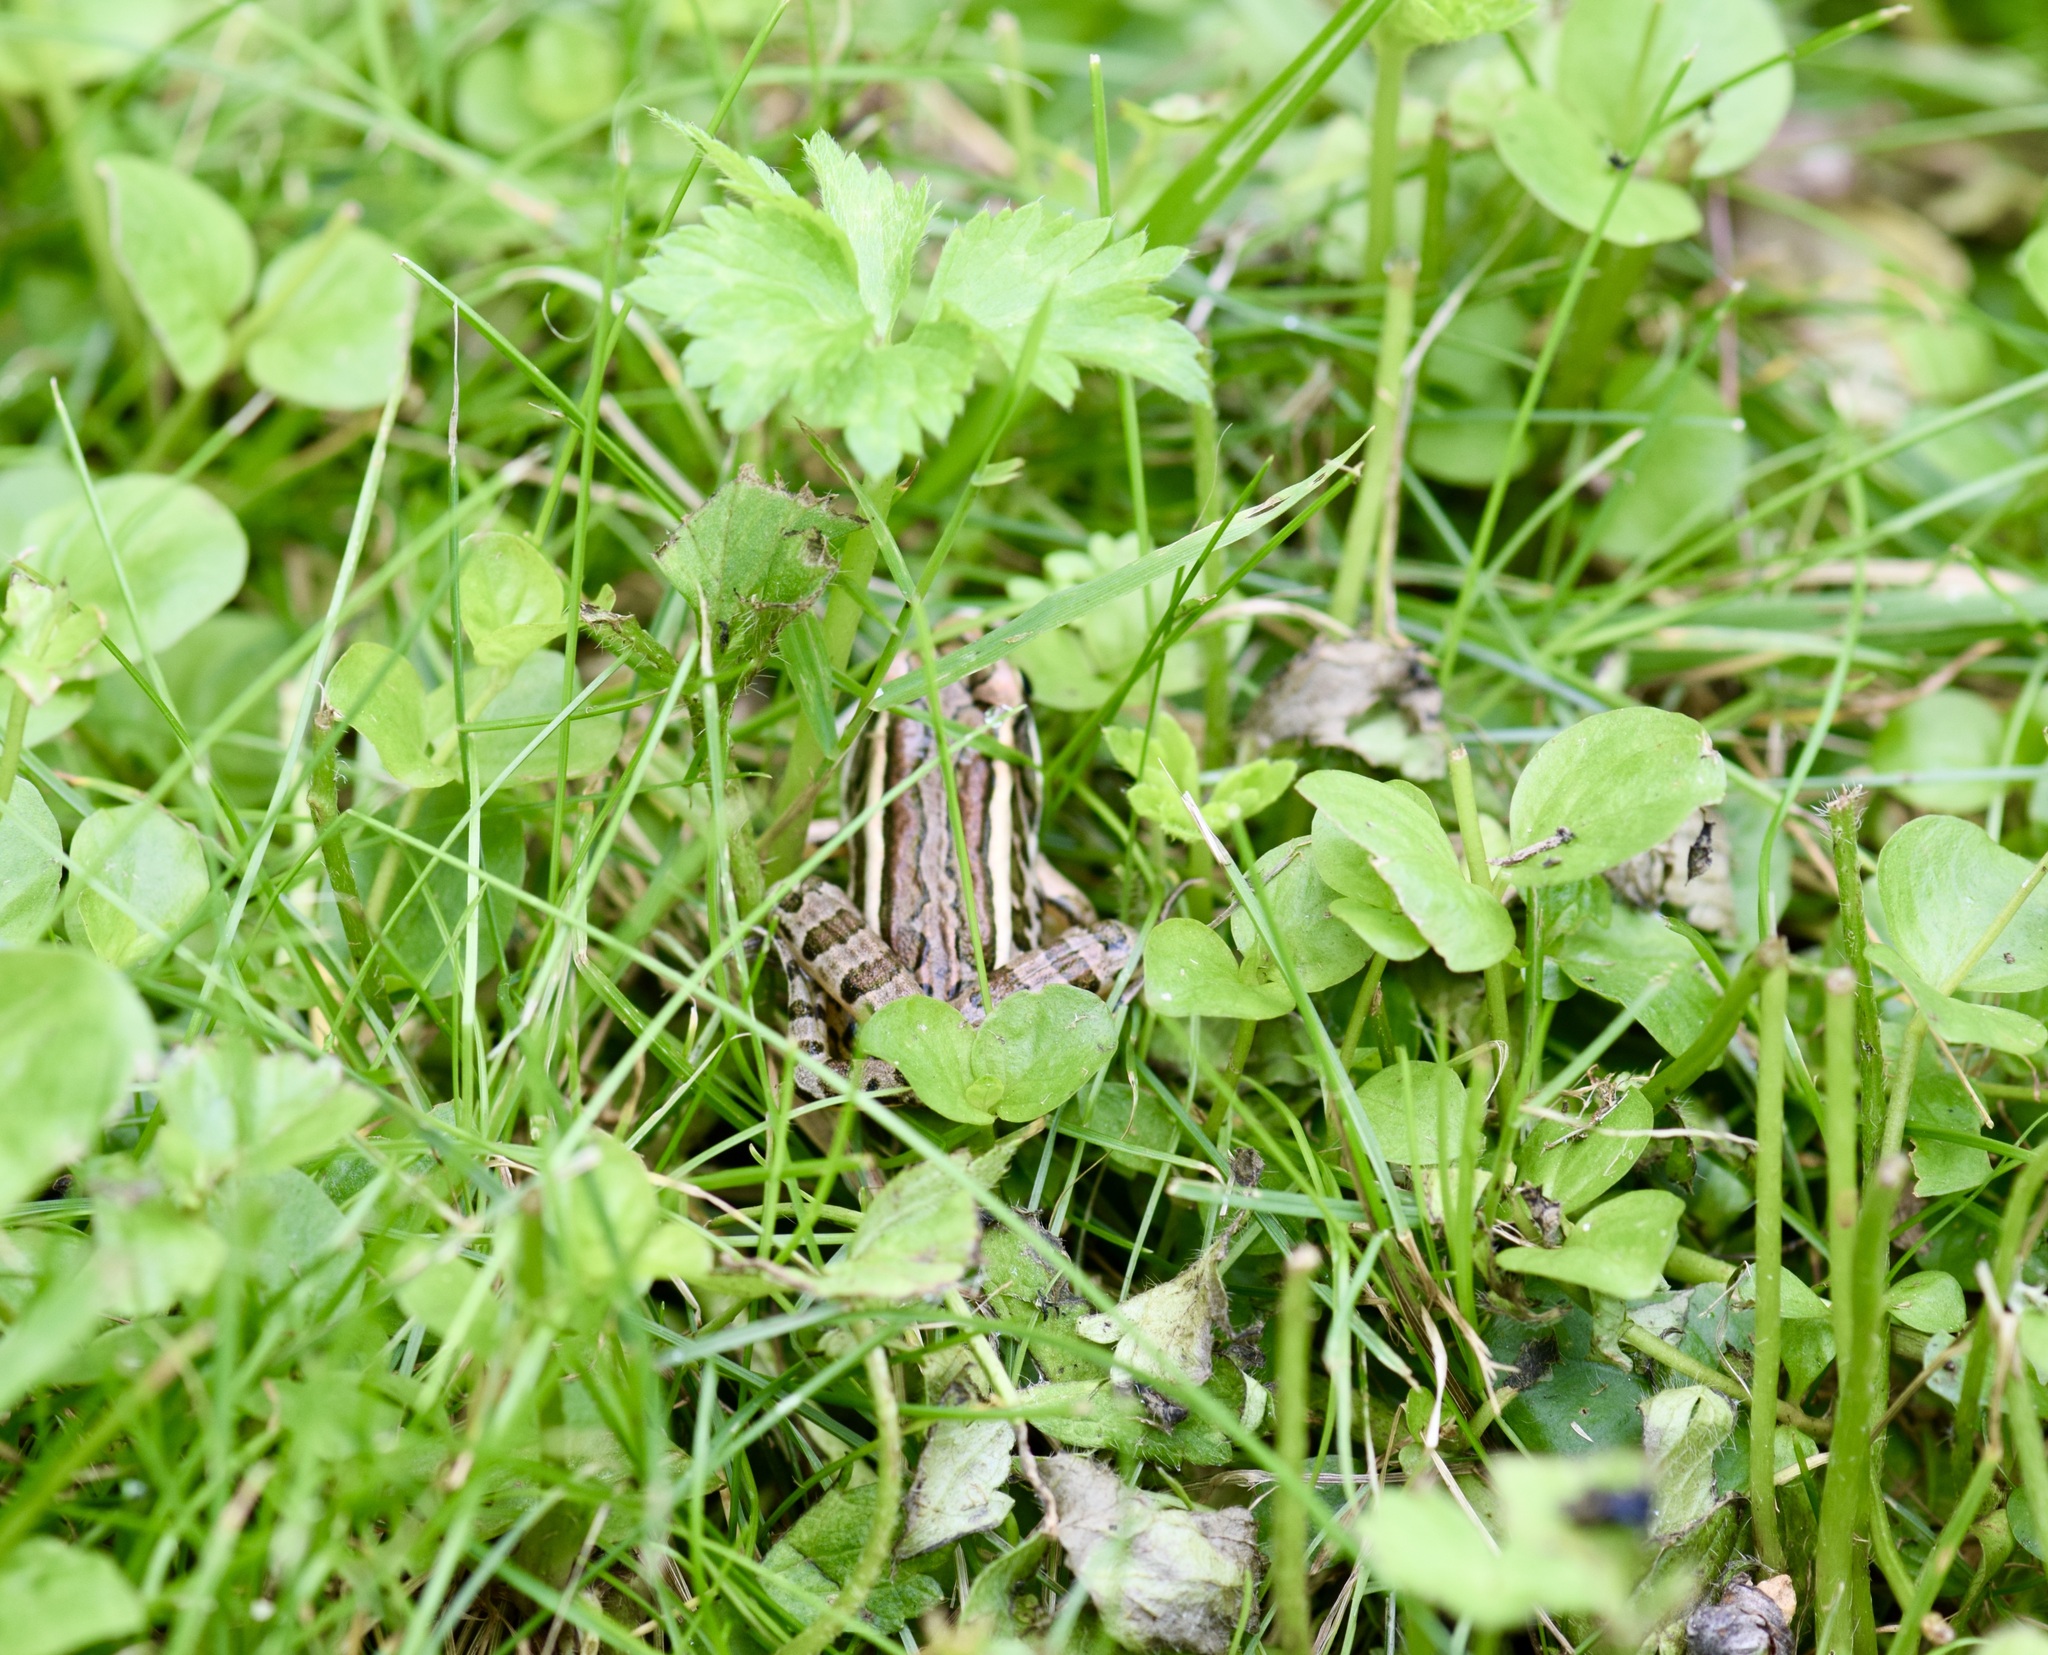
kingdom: Animalia
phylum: Chordata
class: Amphibia
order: Anura
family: Ranidae
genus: Lithobates
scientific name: Lithobates palustris
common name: Pickerel frog
